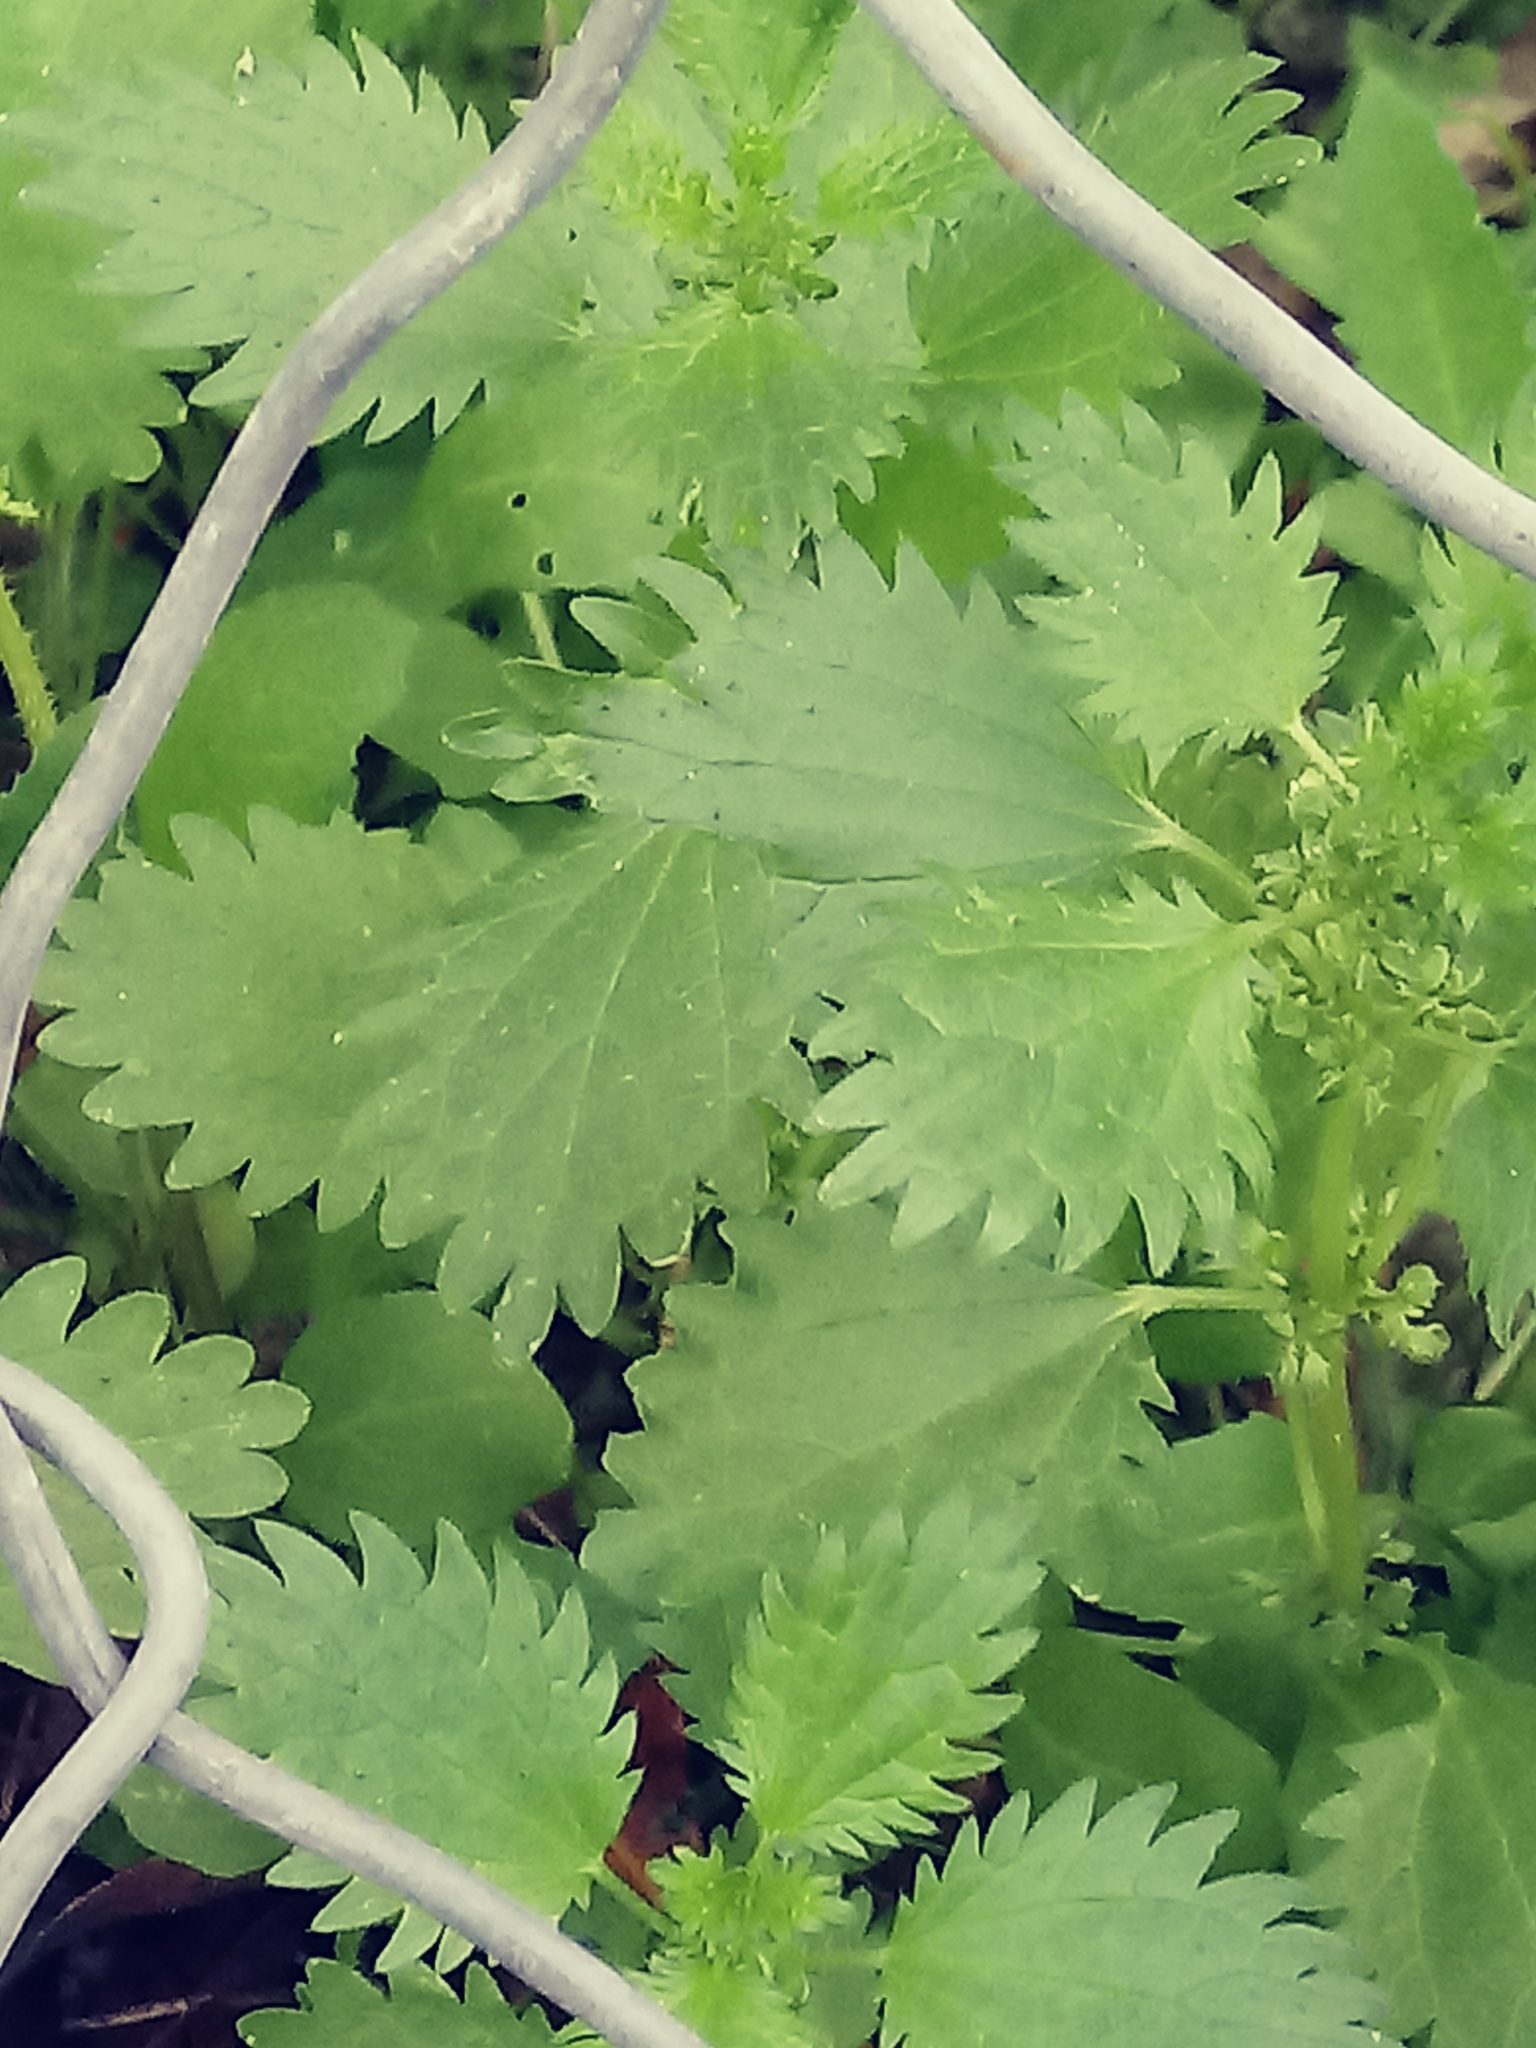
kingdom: Plantae
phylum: Tracheophyta
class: Magnoliopsida
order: Rosales
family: Urticaceae
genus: Urtica
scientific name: Urtica urens
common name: Dwarf nettle
